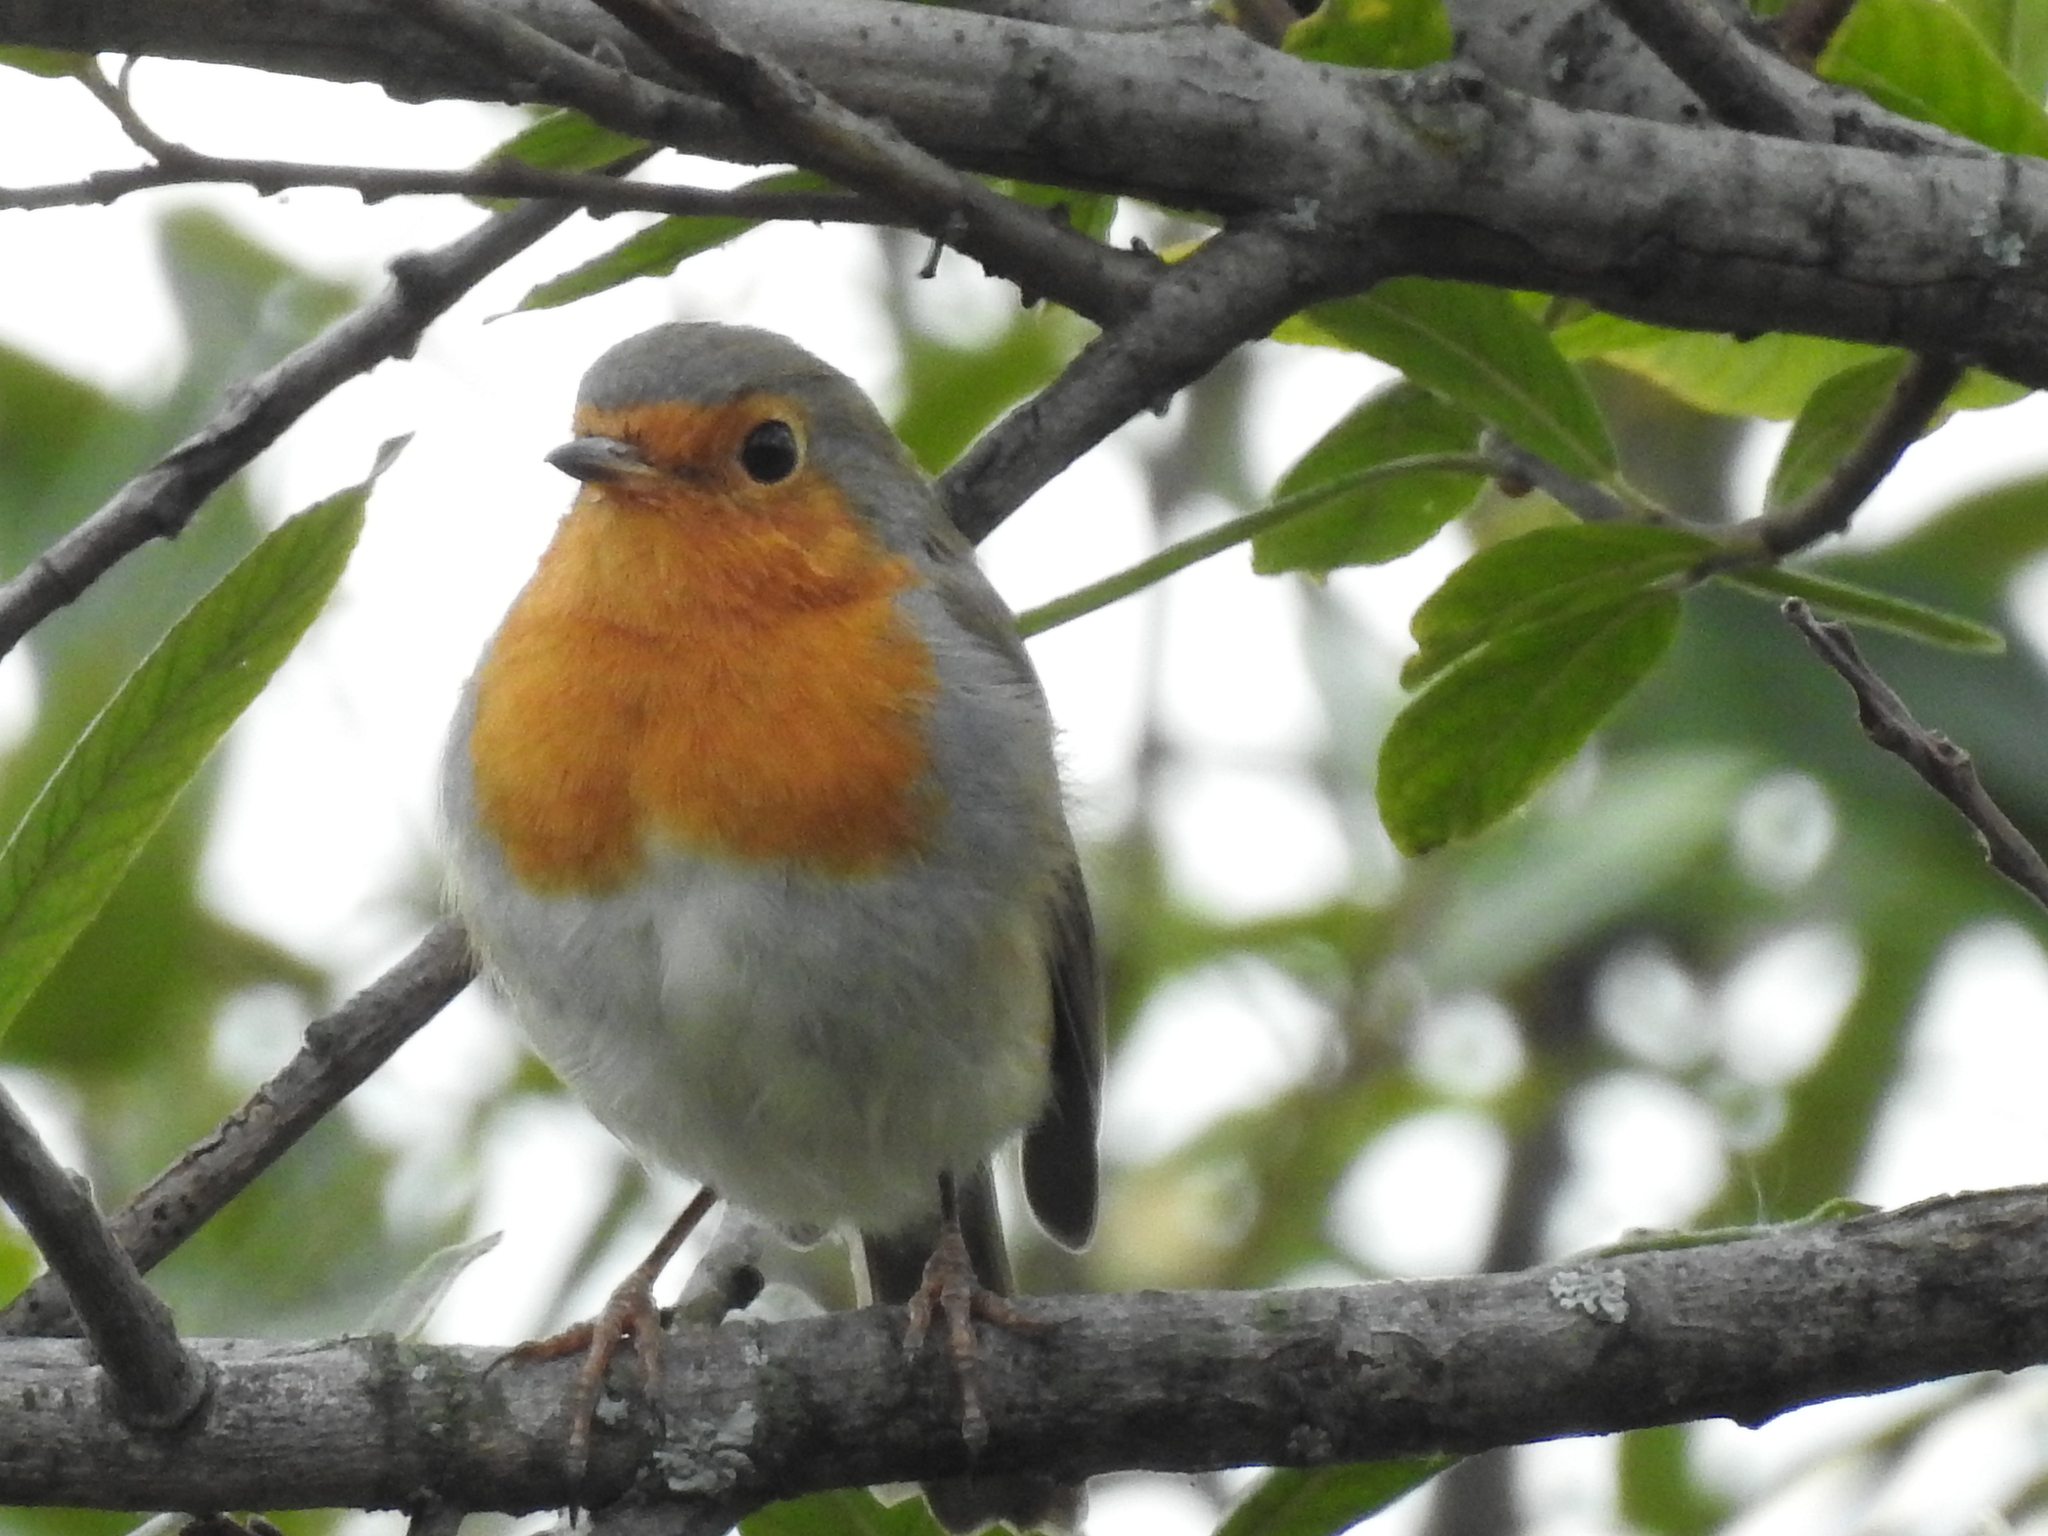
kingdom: Animalia
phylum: Chordata
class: Aves
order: Passeriformes
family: Muscicapidae
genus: Erithacus
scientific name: Erithacus rubecula
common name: European robin
